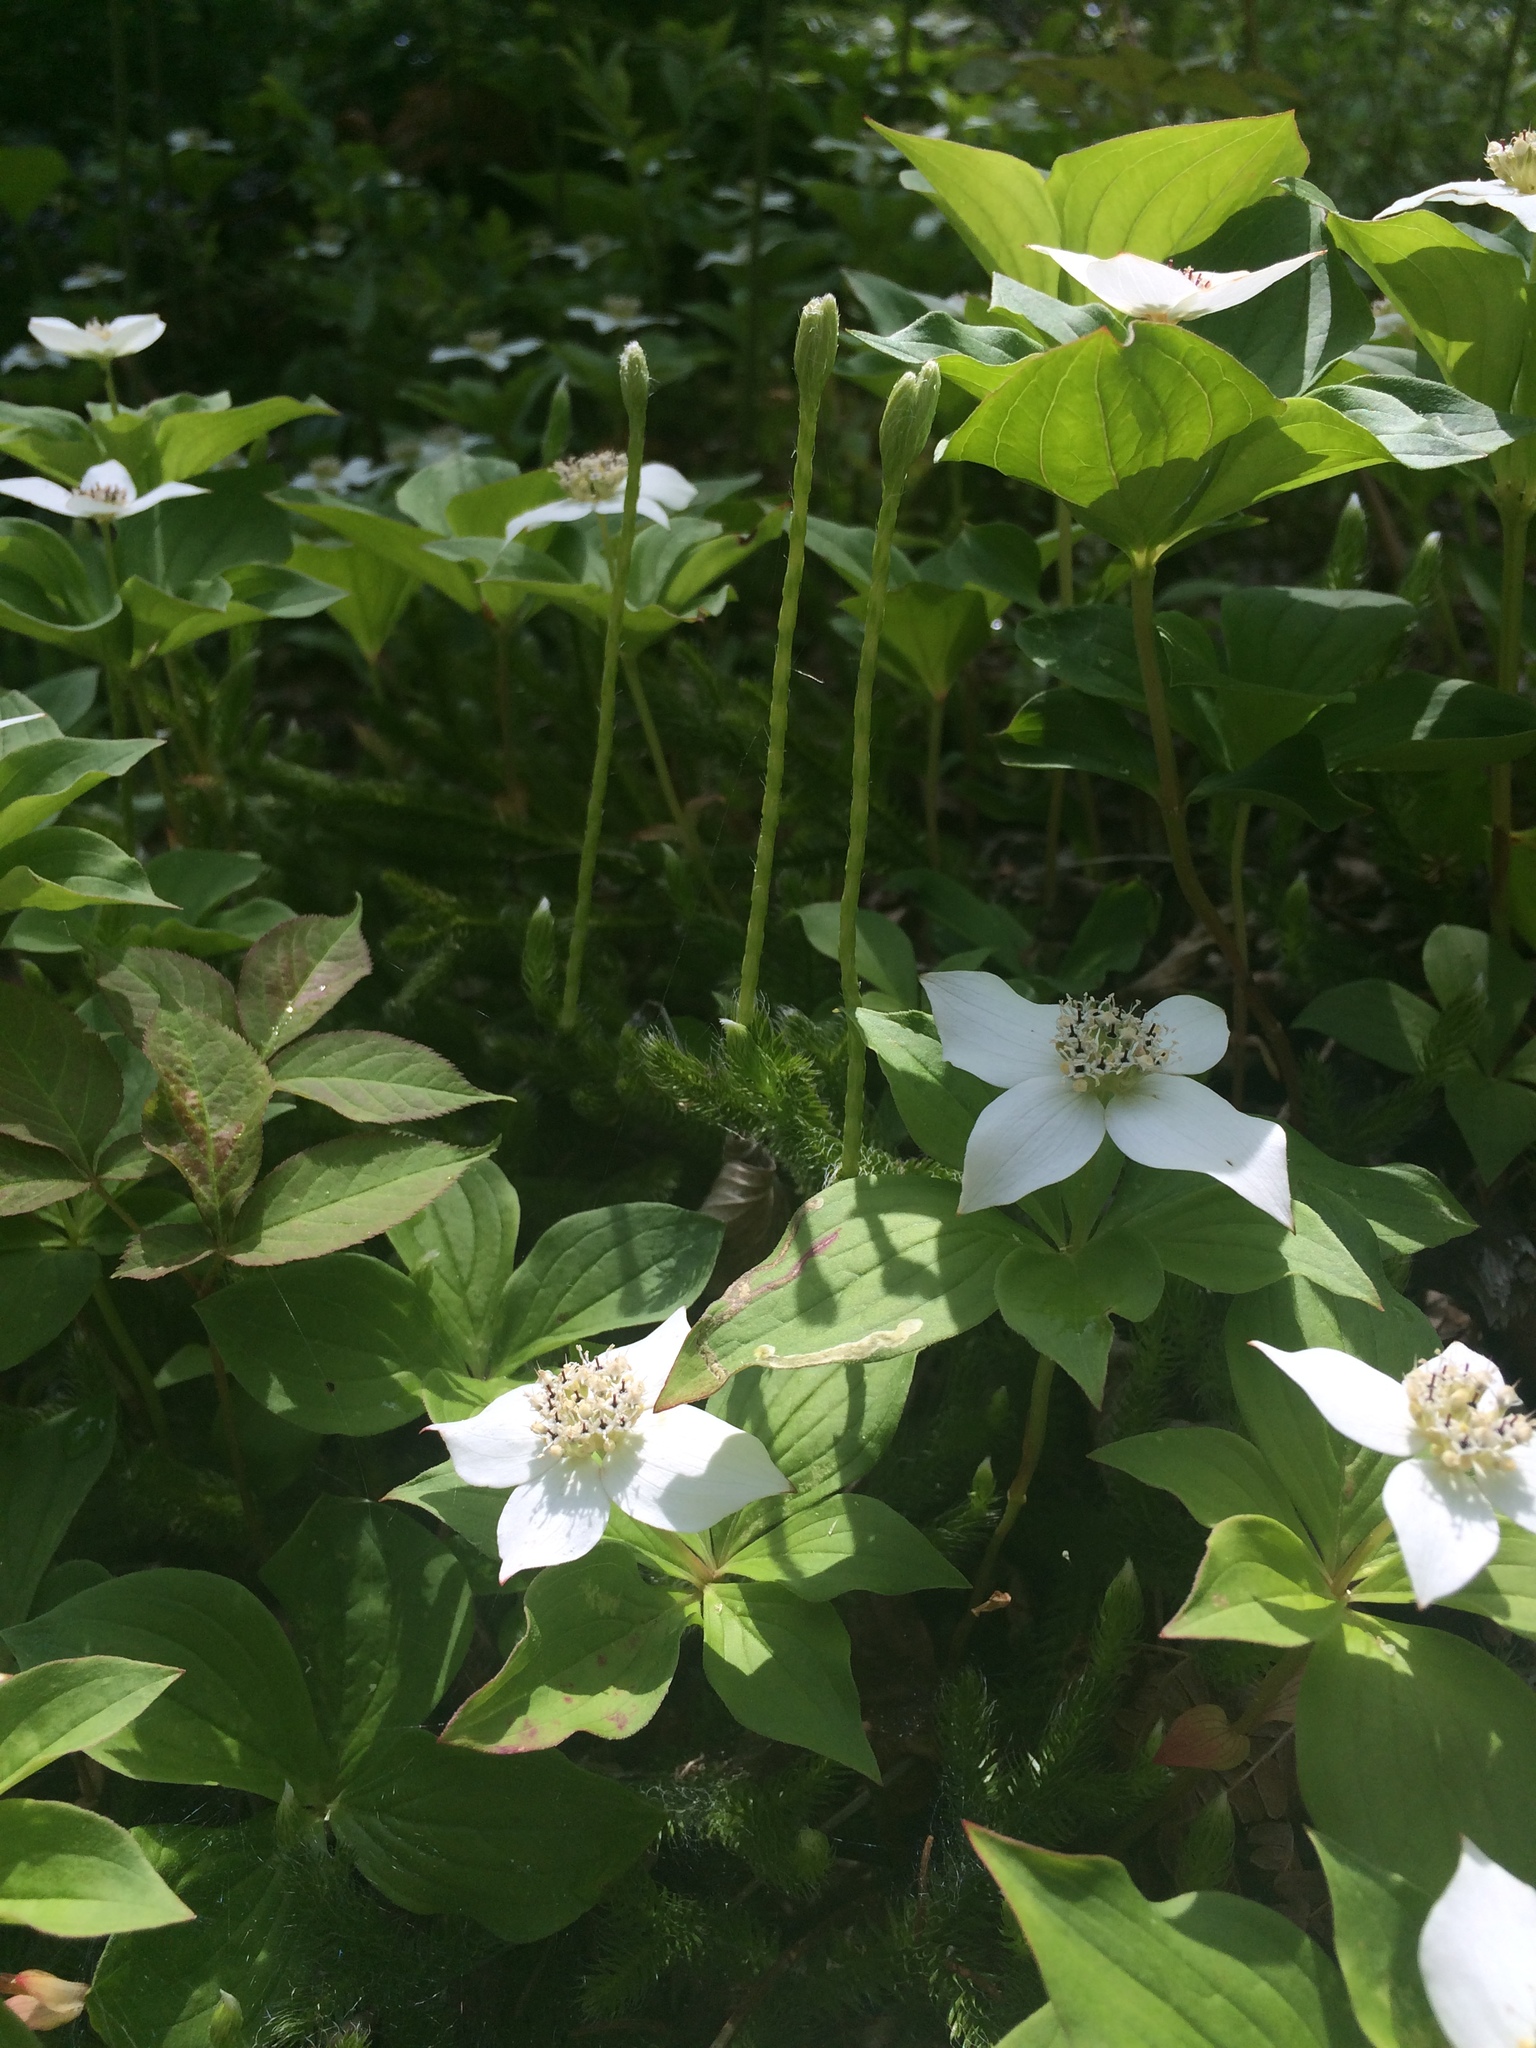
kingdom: Plantae
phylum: Tracheophyta
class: Magnoliopsida
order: Cornales
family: Cornaceae
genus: Cornus
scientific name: Cornus canadensis
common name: Creeping dogwood
